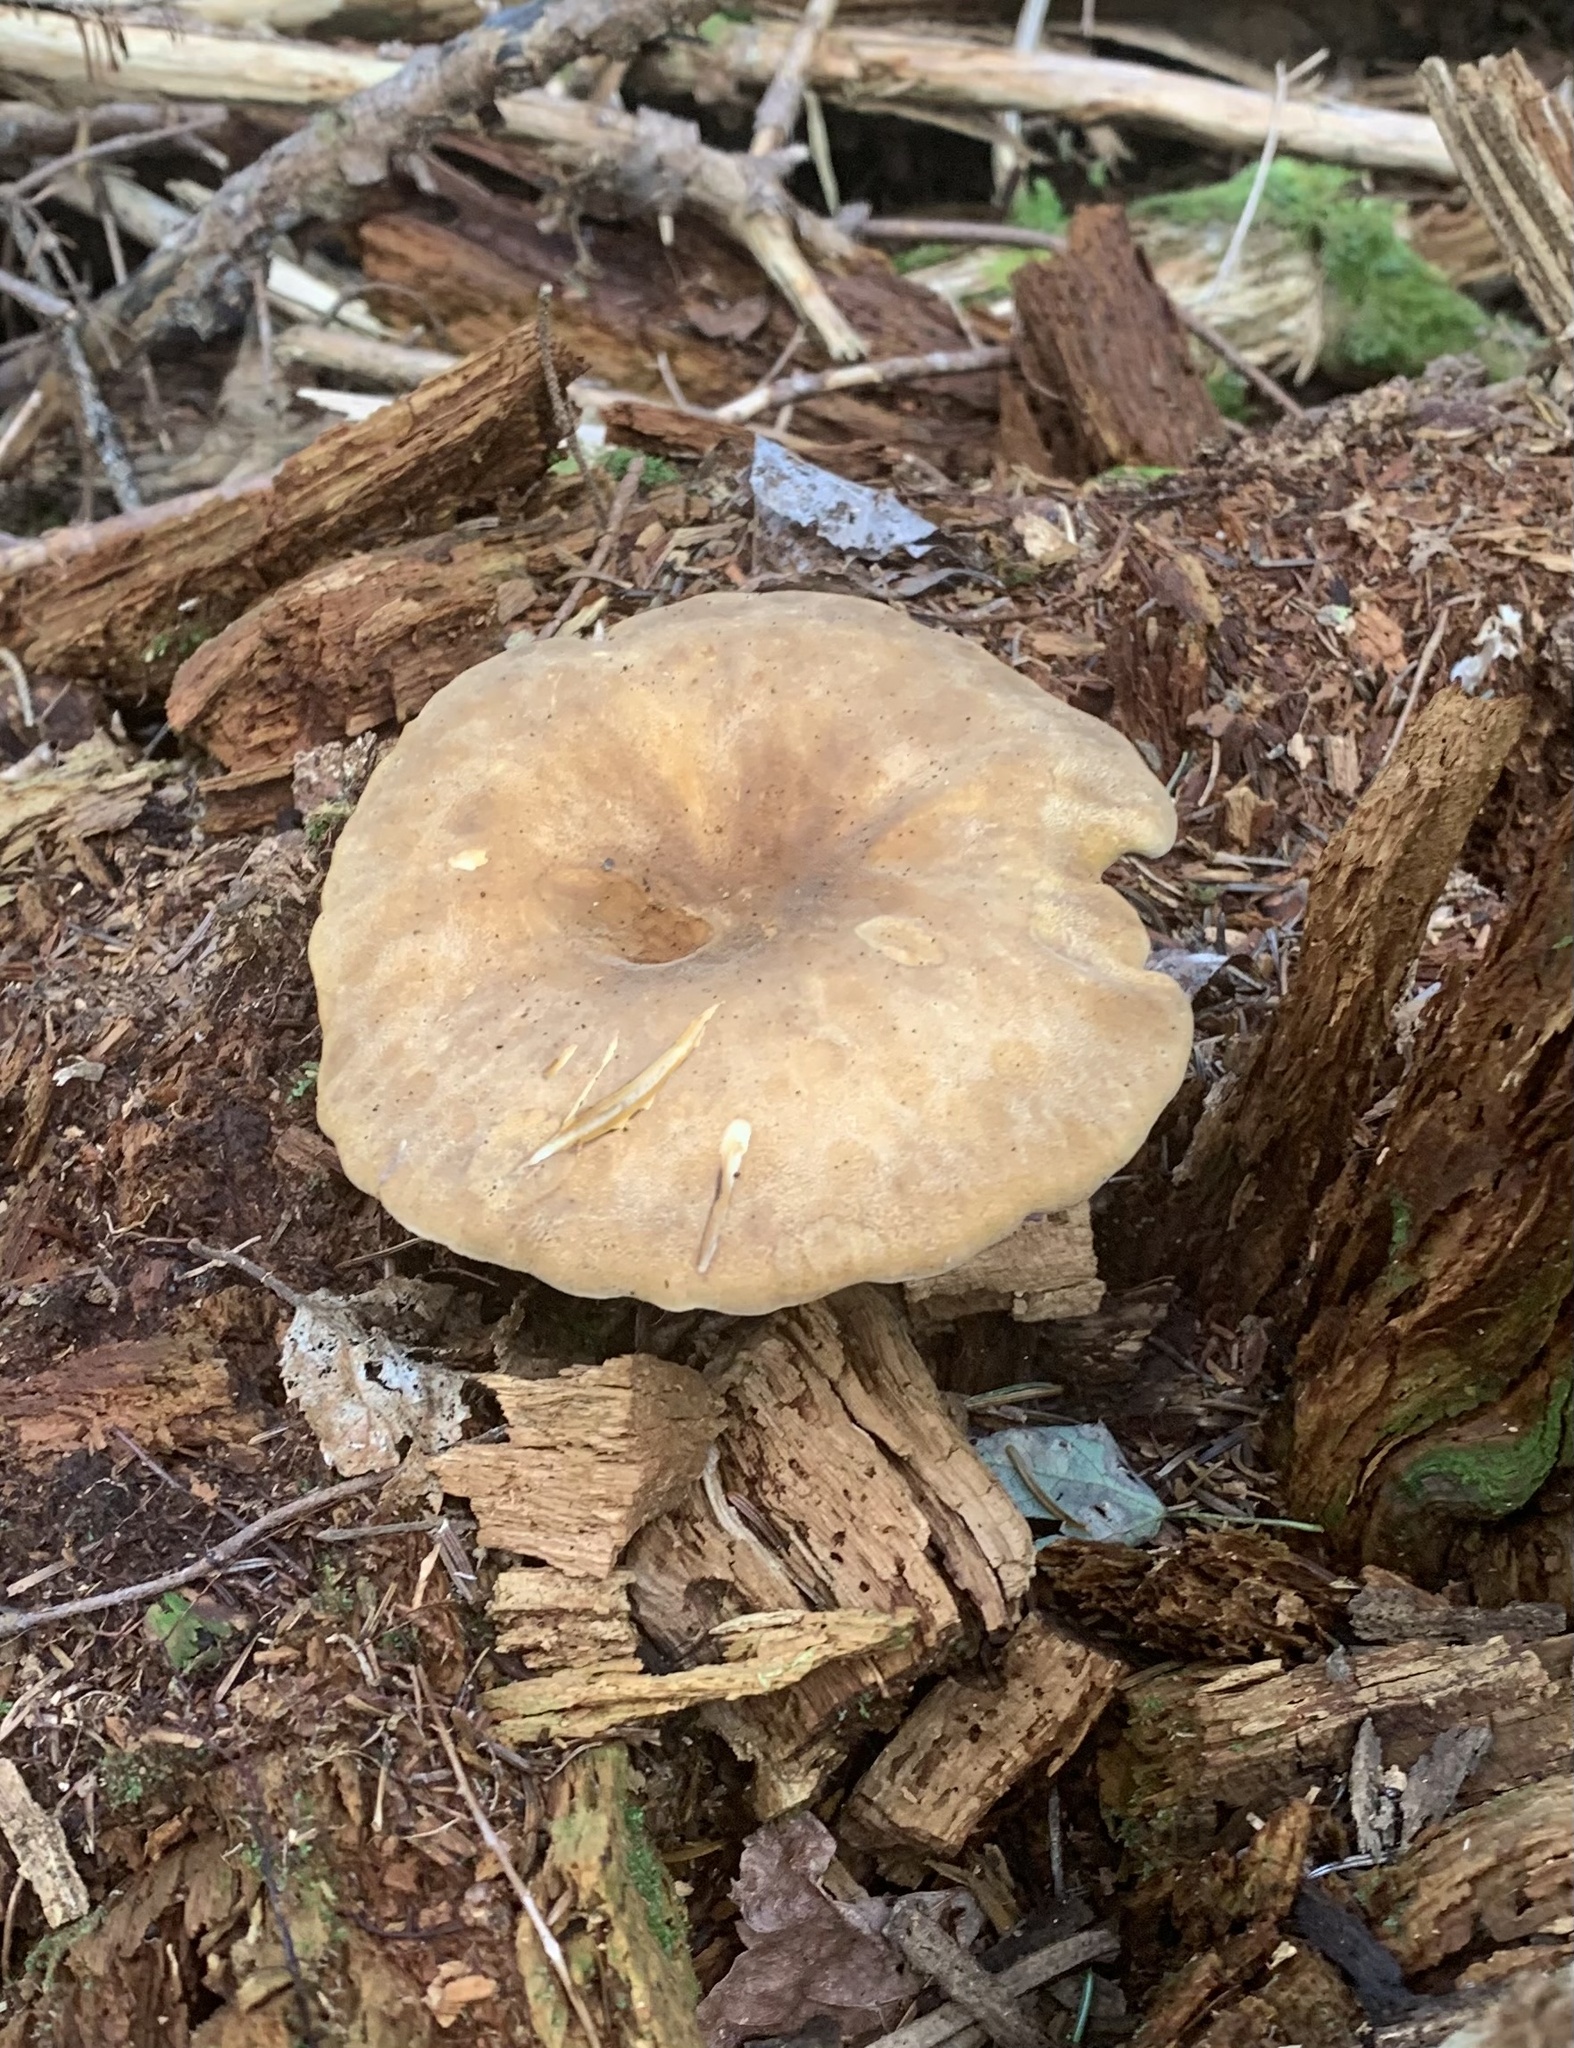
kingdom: Fungi
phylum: Basidiomycota
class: Agaricomycetes
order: Boletales
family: Tapinellaceae
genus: Tapinella
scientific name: Tapinella atrotomentosa
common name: Velvet rollrim
